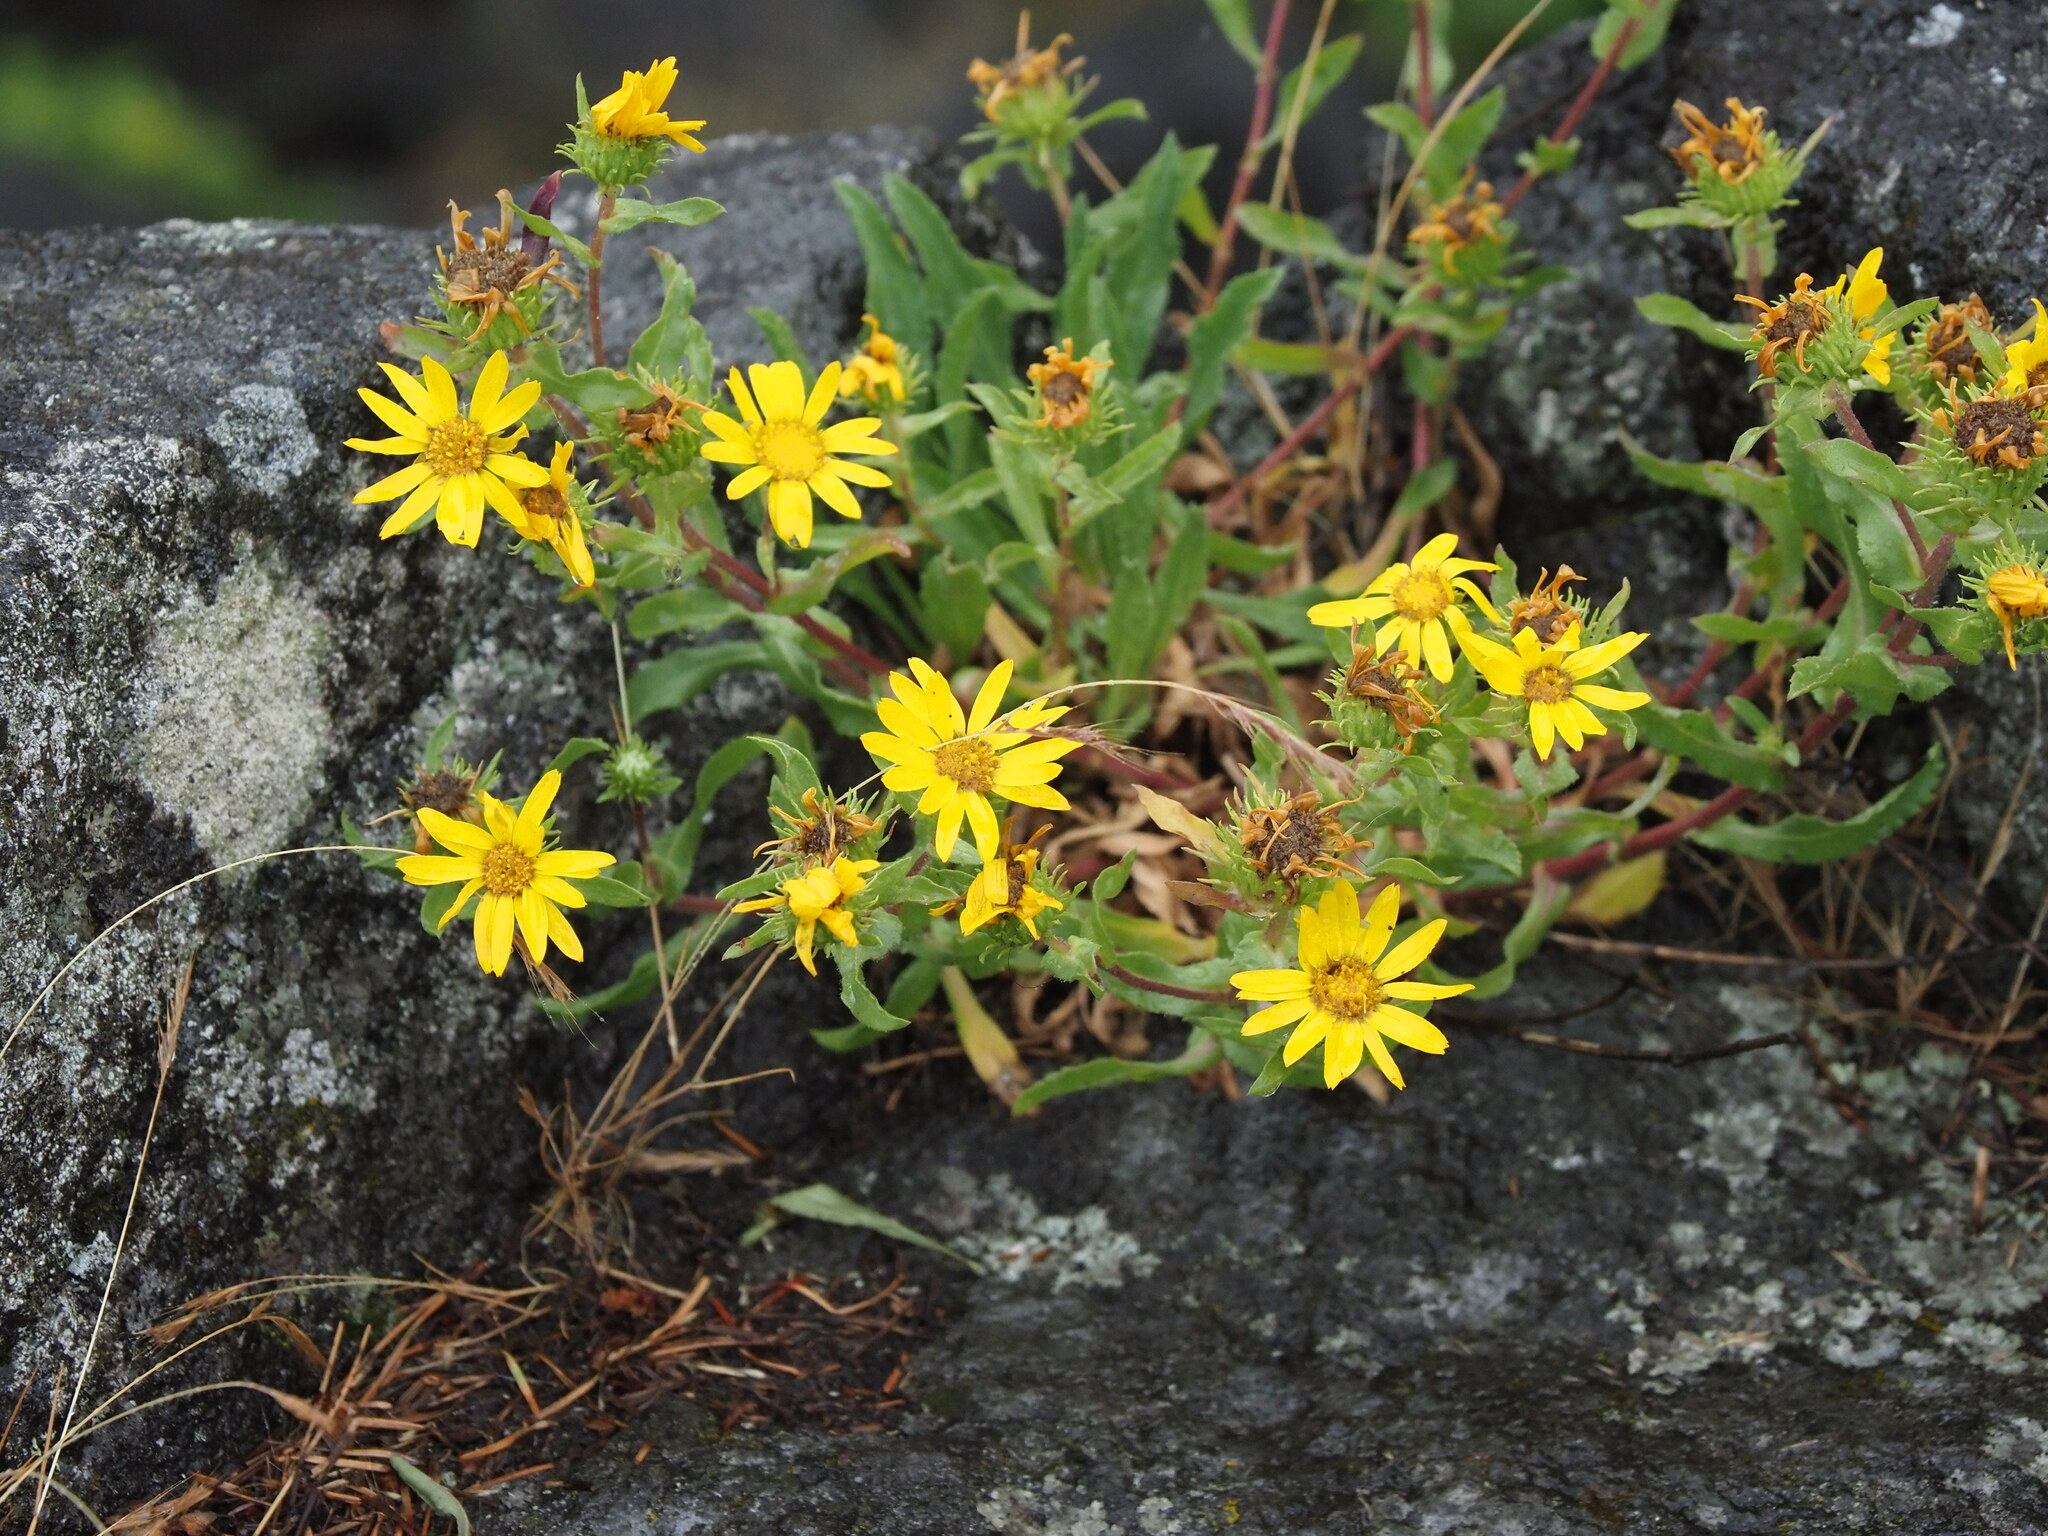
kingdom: Plantae
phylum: Tracheophyta
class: Magnoliopsida
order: Asterales
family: Asteraceae
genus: Grindelia
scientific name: Grindelia hirsutula
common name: Hairy gumweed
